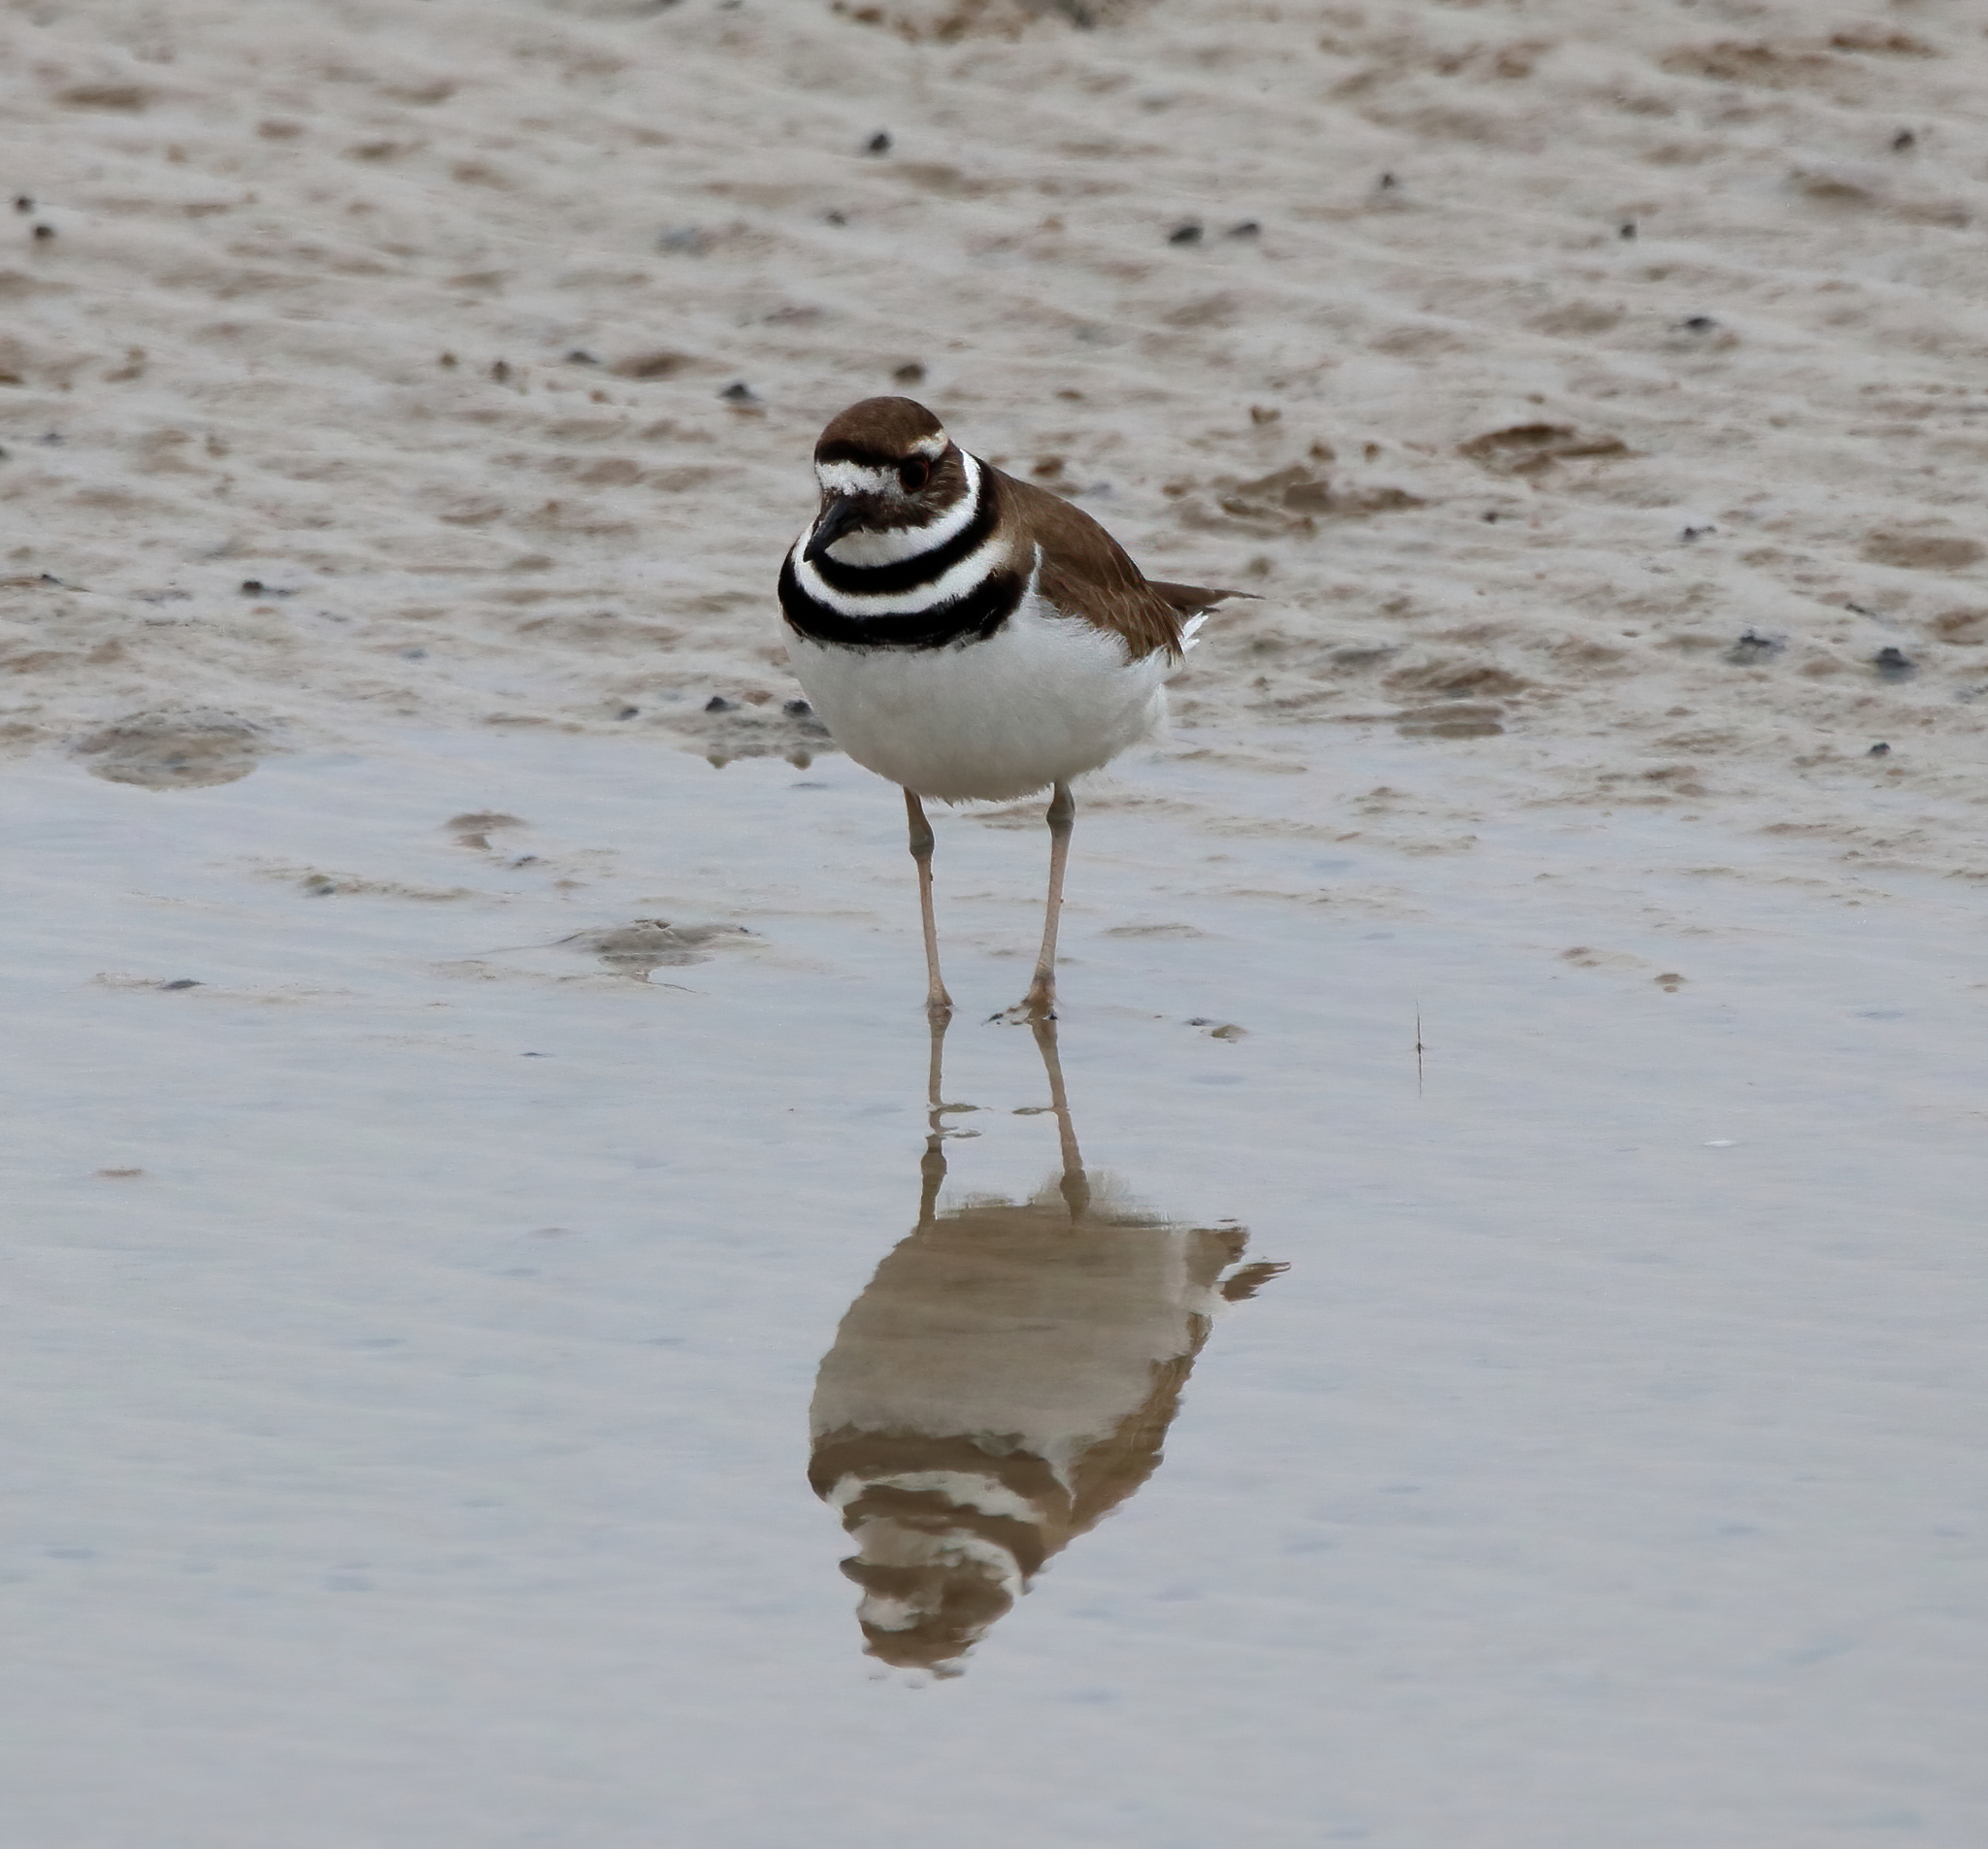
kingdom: Animalia
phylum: Chordata
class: Aves
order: Charadriiformes
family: Charadriidae
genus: Charadrius
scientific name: Charadrius vociferus
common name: Killdeer
